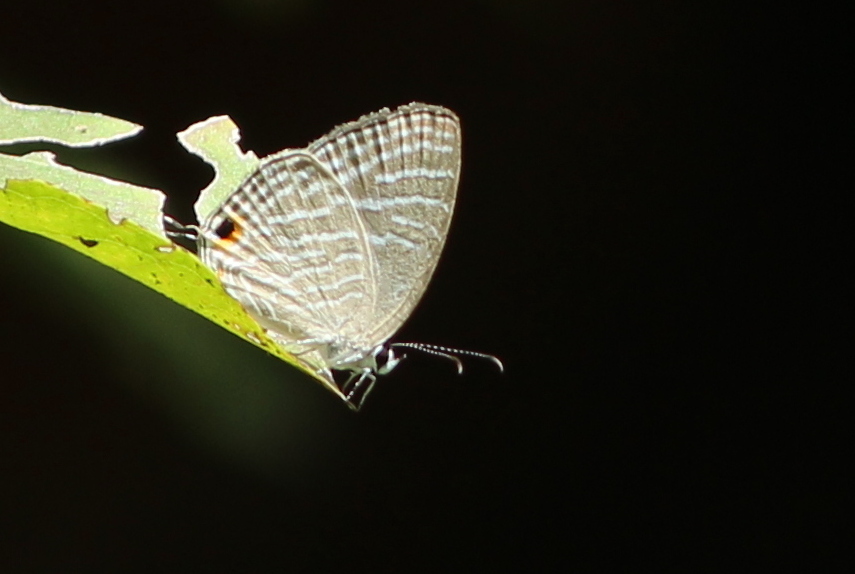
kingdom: Animalia
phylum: Arthropoda
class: Insecta
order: Lepidoptera
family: Lycaenidae
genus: Jamides
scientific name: Jamides celeno
